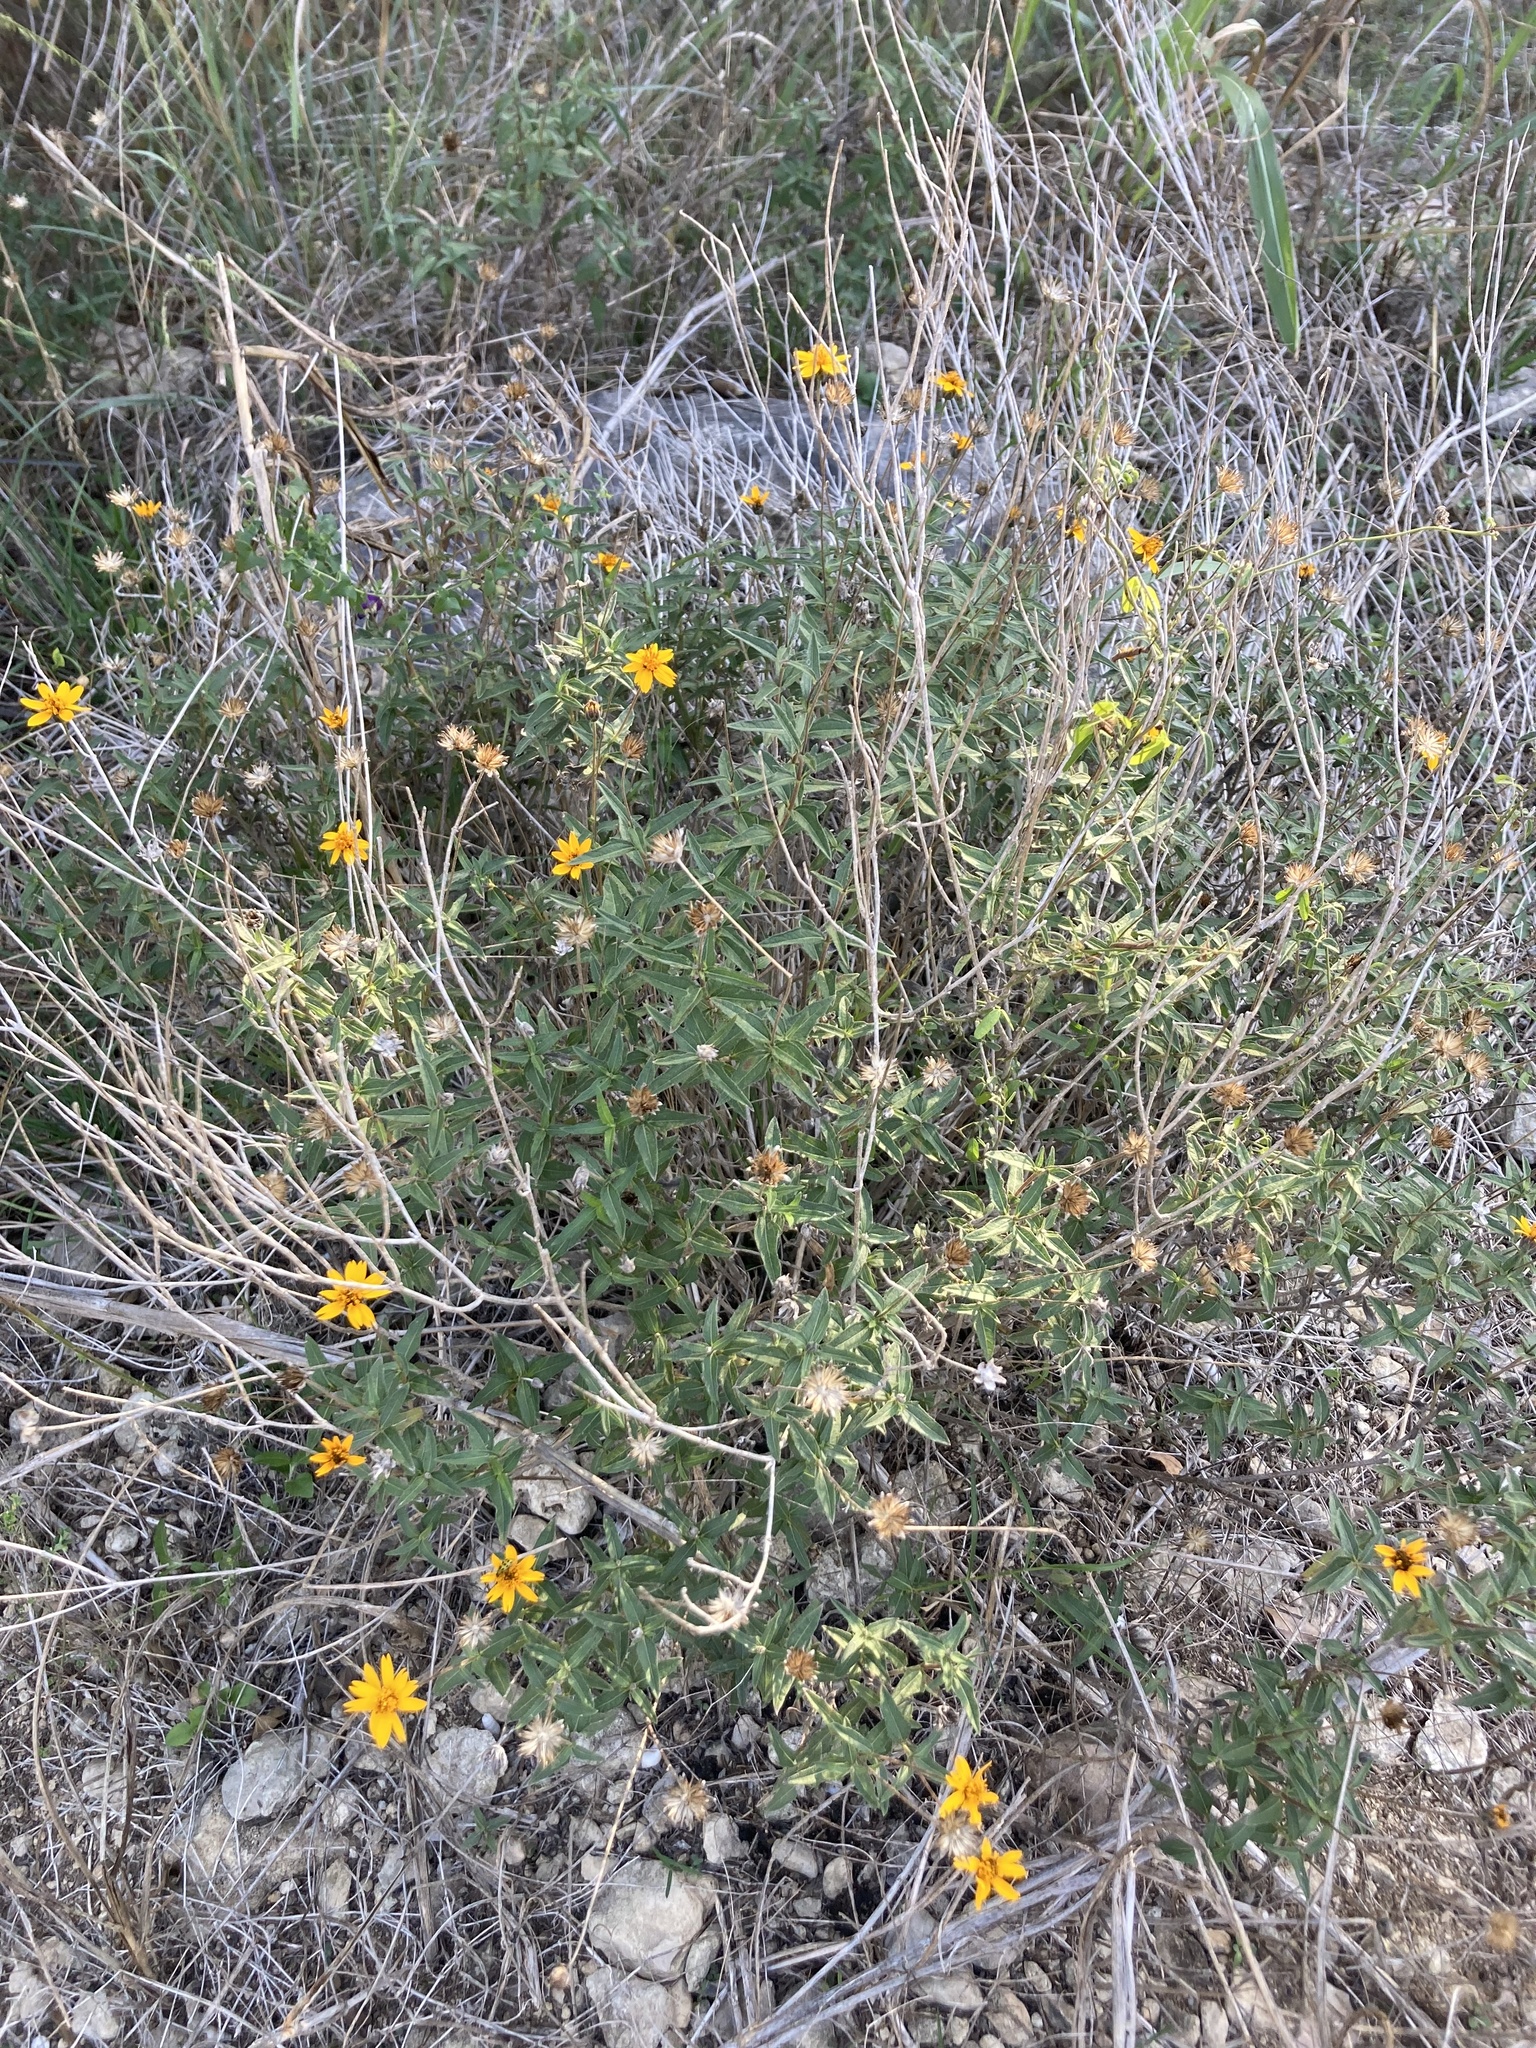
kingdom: Plantae
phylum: Tracheophyta
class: Magnoliopsida
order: Asterales
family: Asteraceae
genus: Wedelia
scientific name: Wedelia acapulcensis
